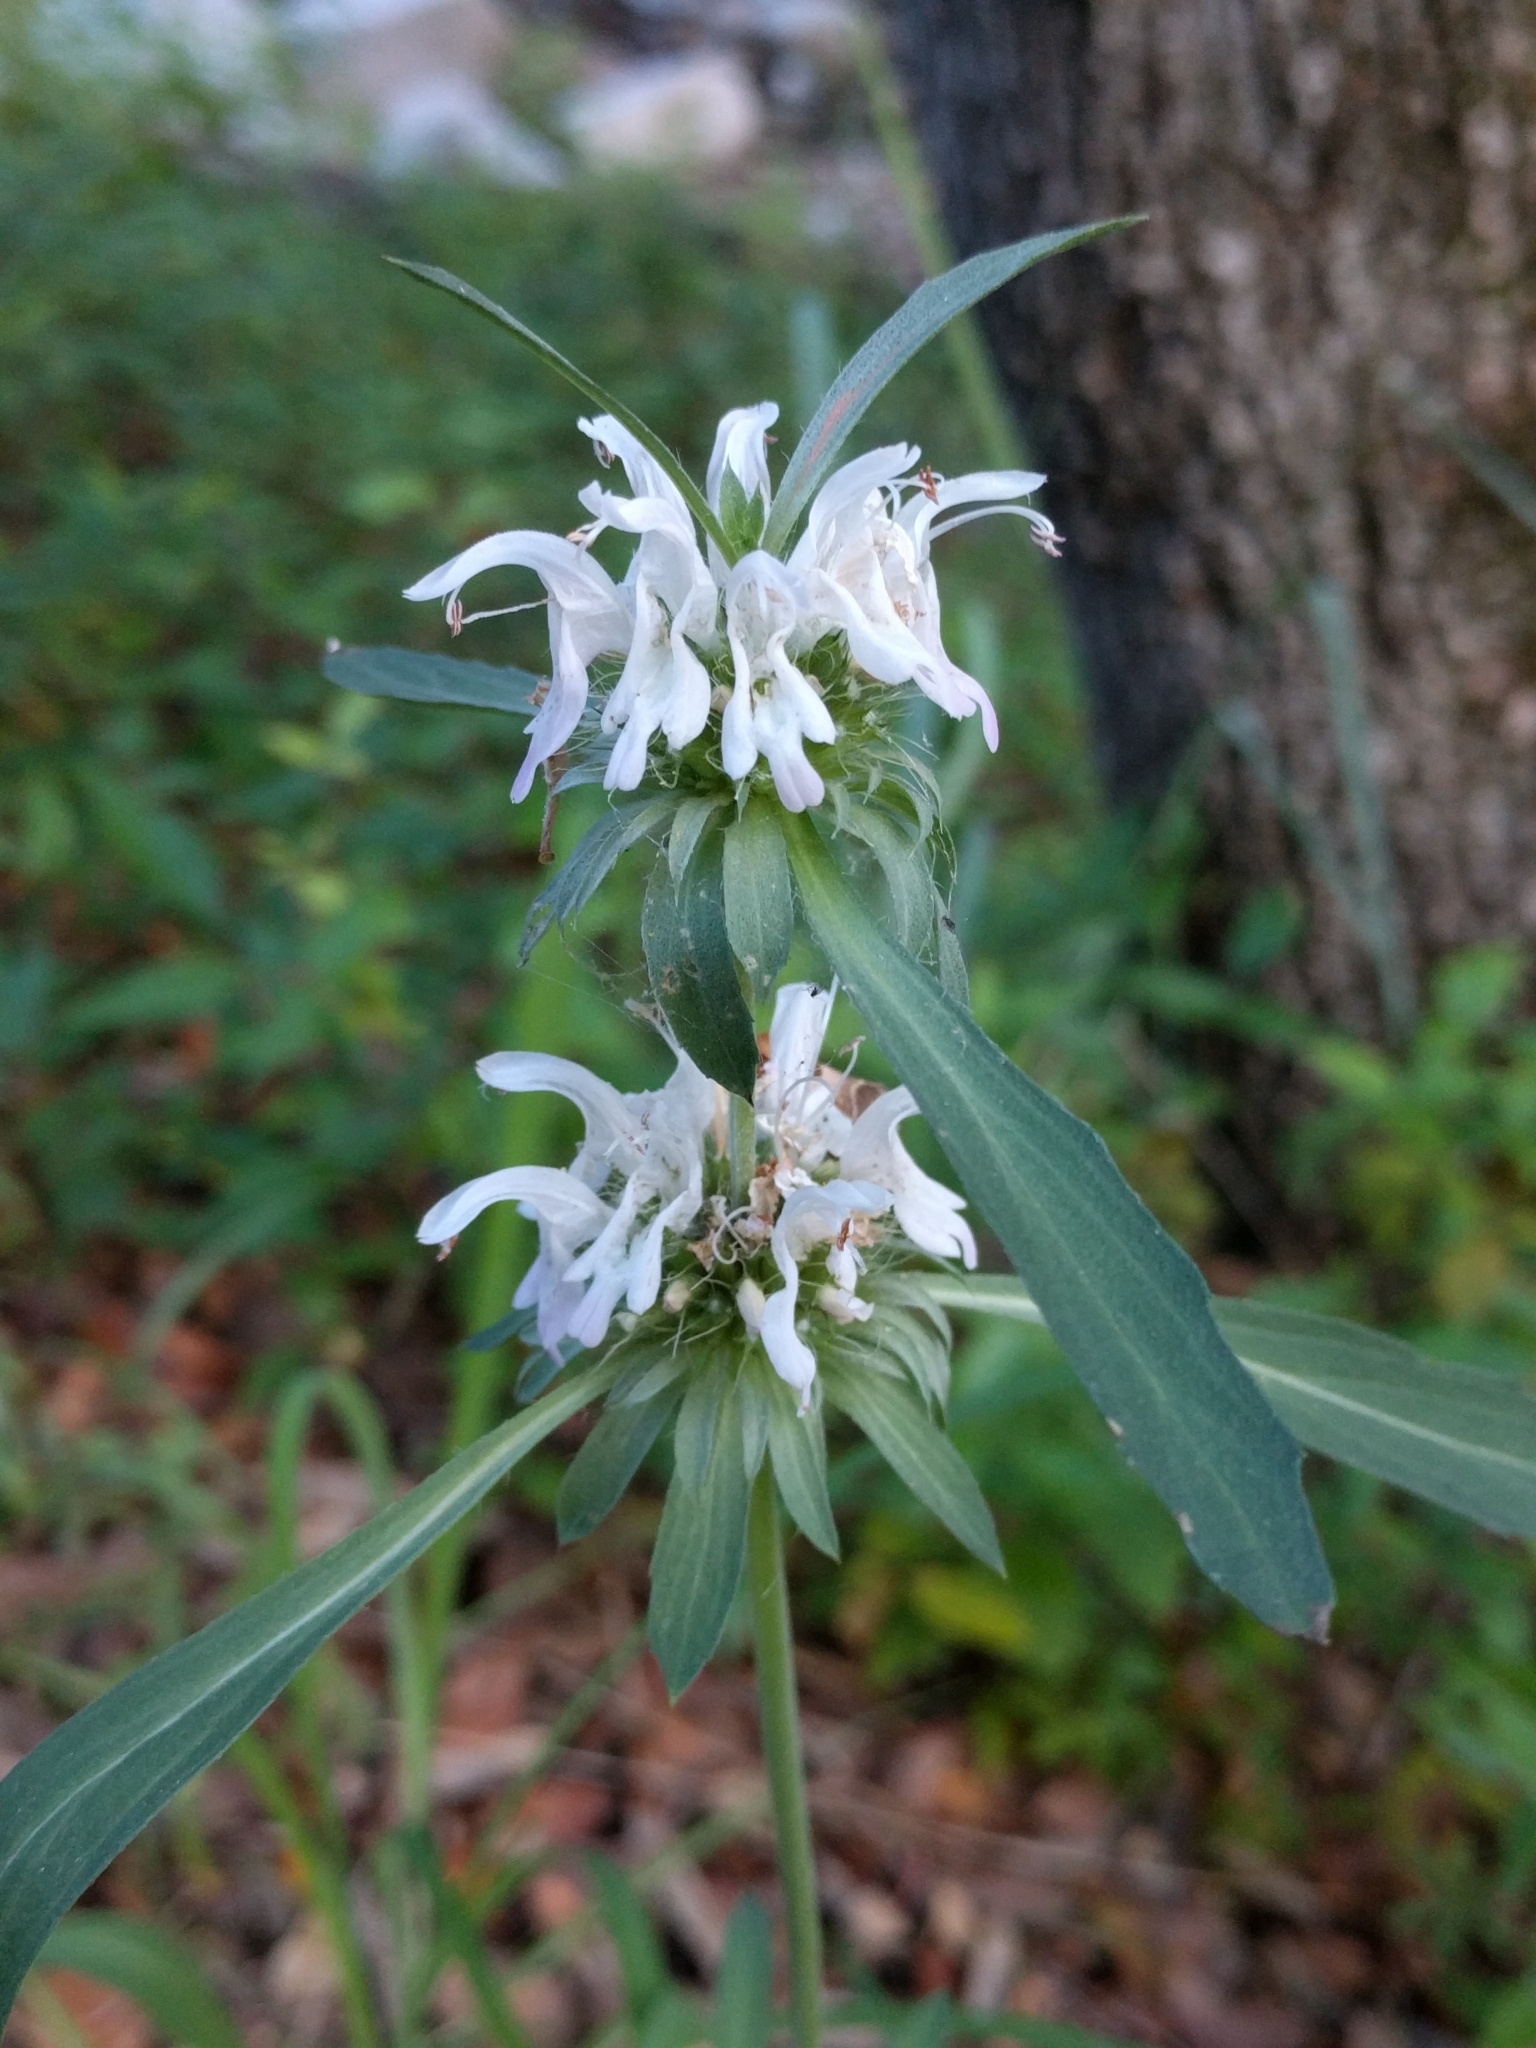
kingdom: Plantae
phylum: Tracheophyta
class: Magnoliopsida
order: Lamiales
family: Lamiaceae
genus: Monarda
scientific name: Monarda citriodora
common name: Lemon beebalm
